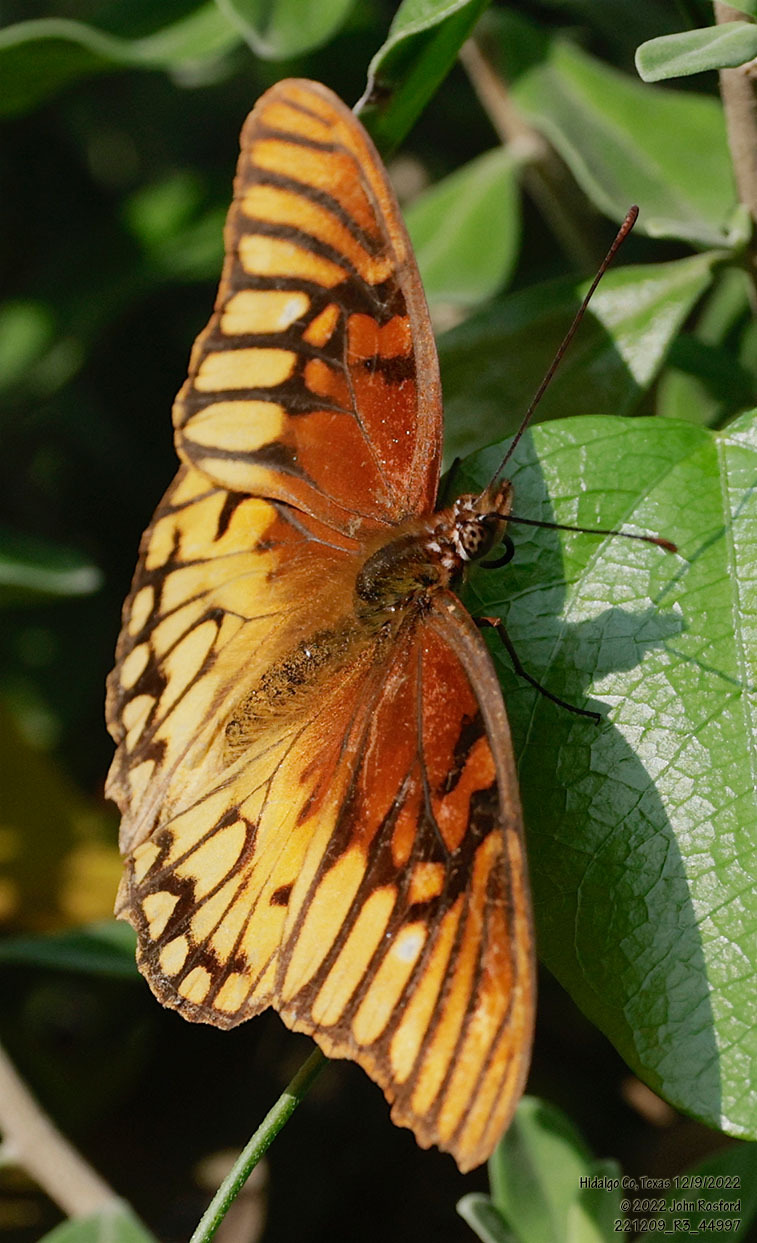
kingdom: Animalia
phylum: Arthropoda
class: Insecta
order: Lepidoptera
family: Nymphalidae
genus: Dione
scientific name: Dione moneta
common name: Mexican silverspot
